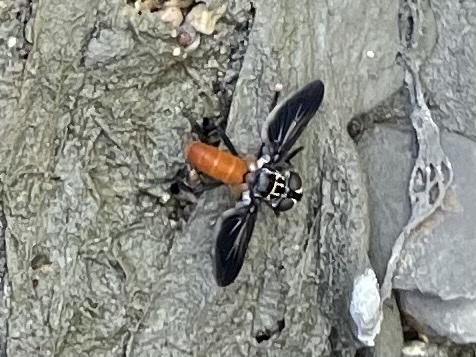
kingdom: Animalia
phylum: Arthropoda
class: Insecta
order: Diptera
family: Tachinidae
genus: Trichopoda
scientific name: Trichopoda pennipes
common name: Tachinid fly
